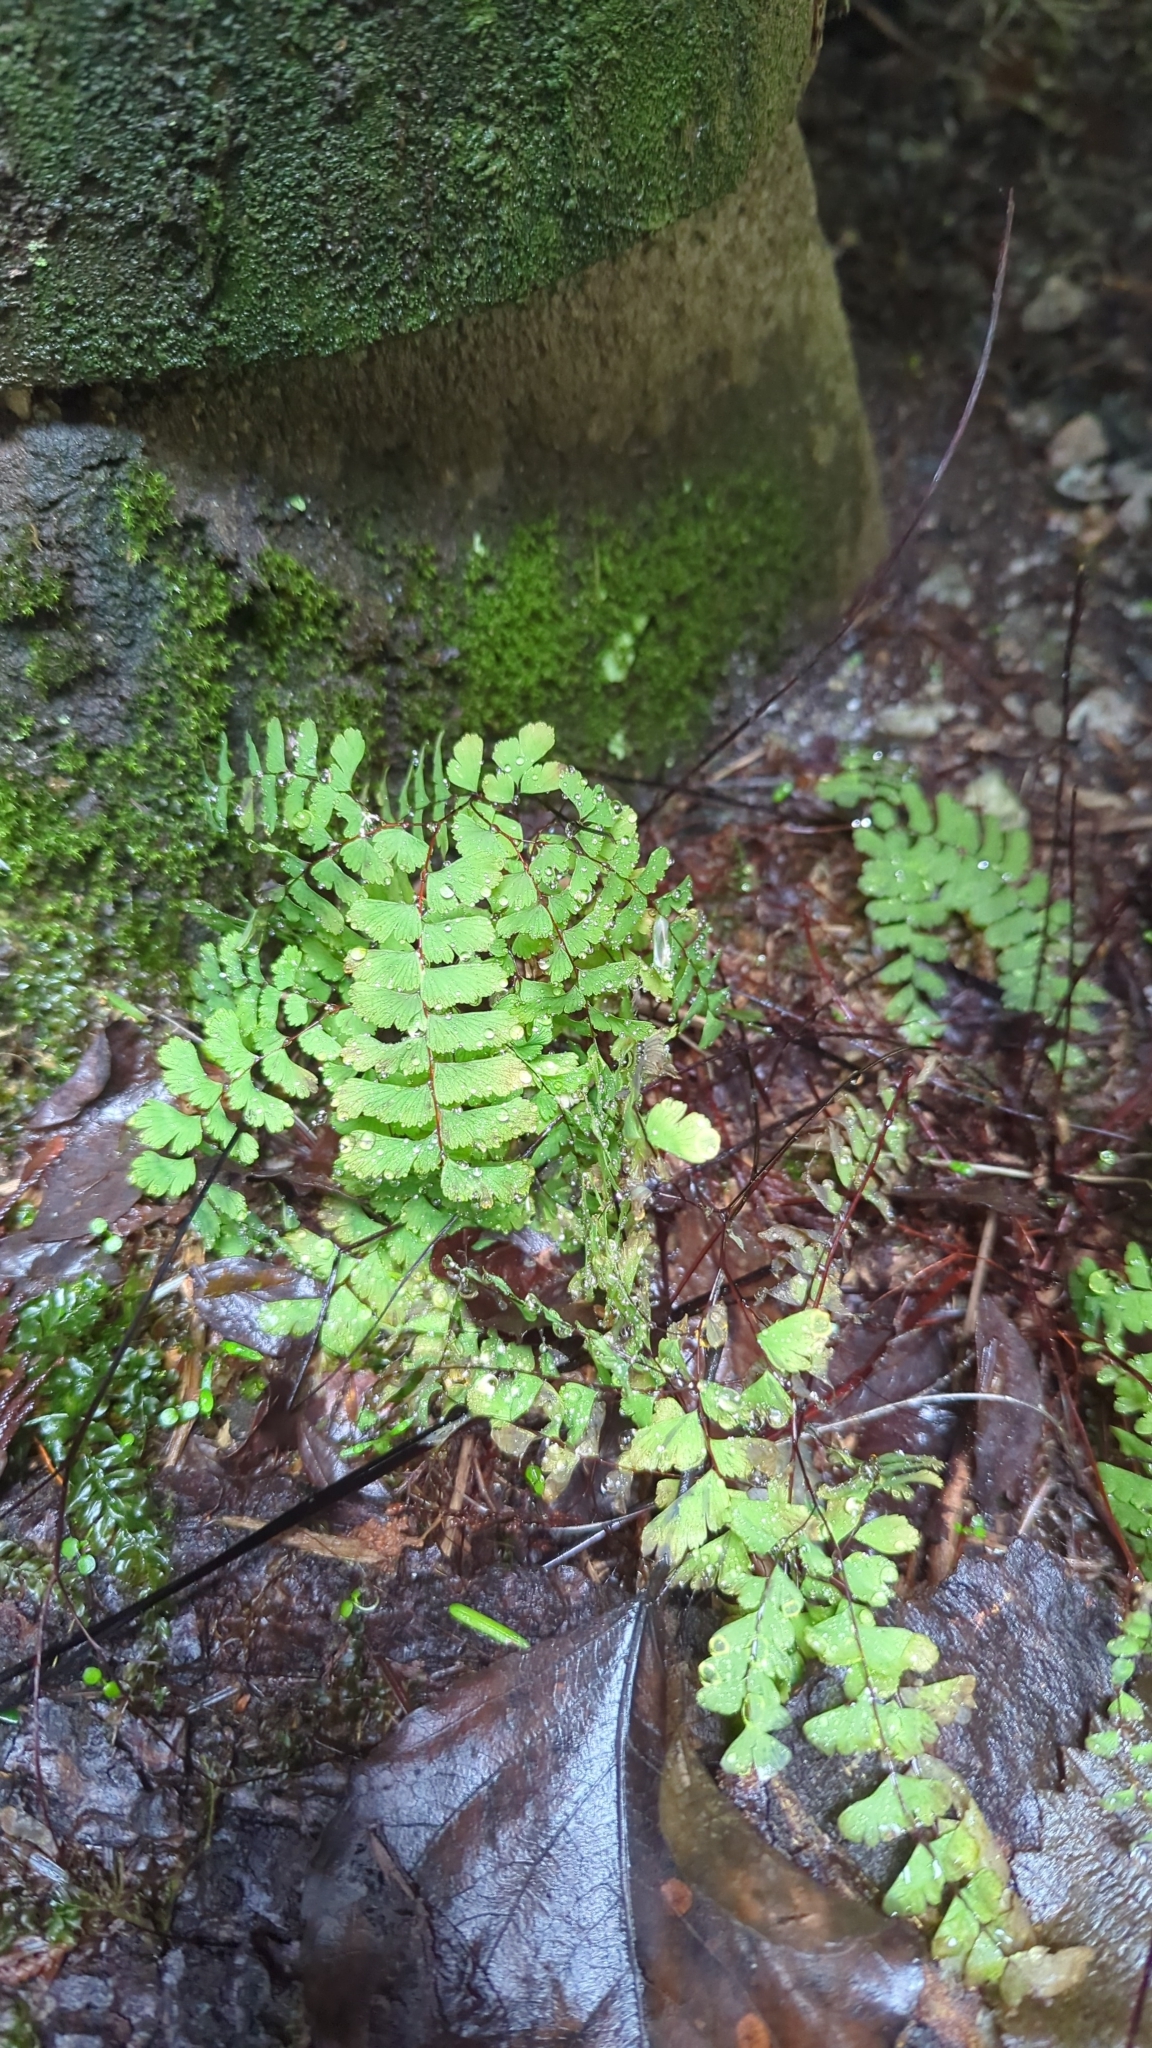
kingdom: Plantae
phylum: Tracheophyta
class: Polypodiopsida
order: Polypodiales
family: Pteridaceae
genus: Adiantum
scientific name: Adiantum aleuticum
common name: Aleutian maidenhair fern
